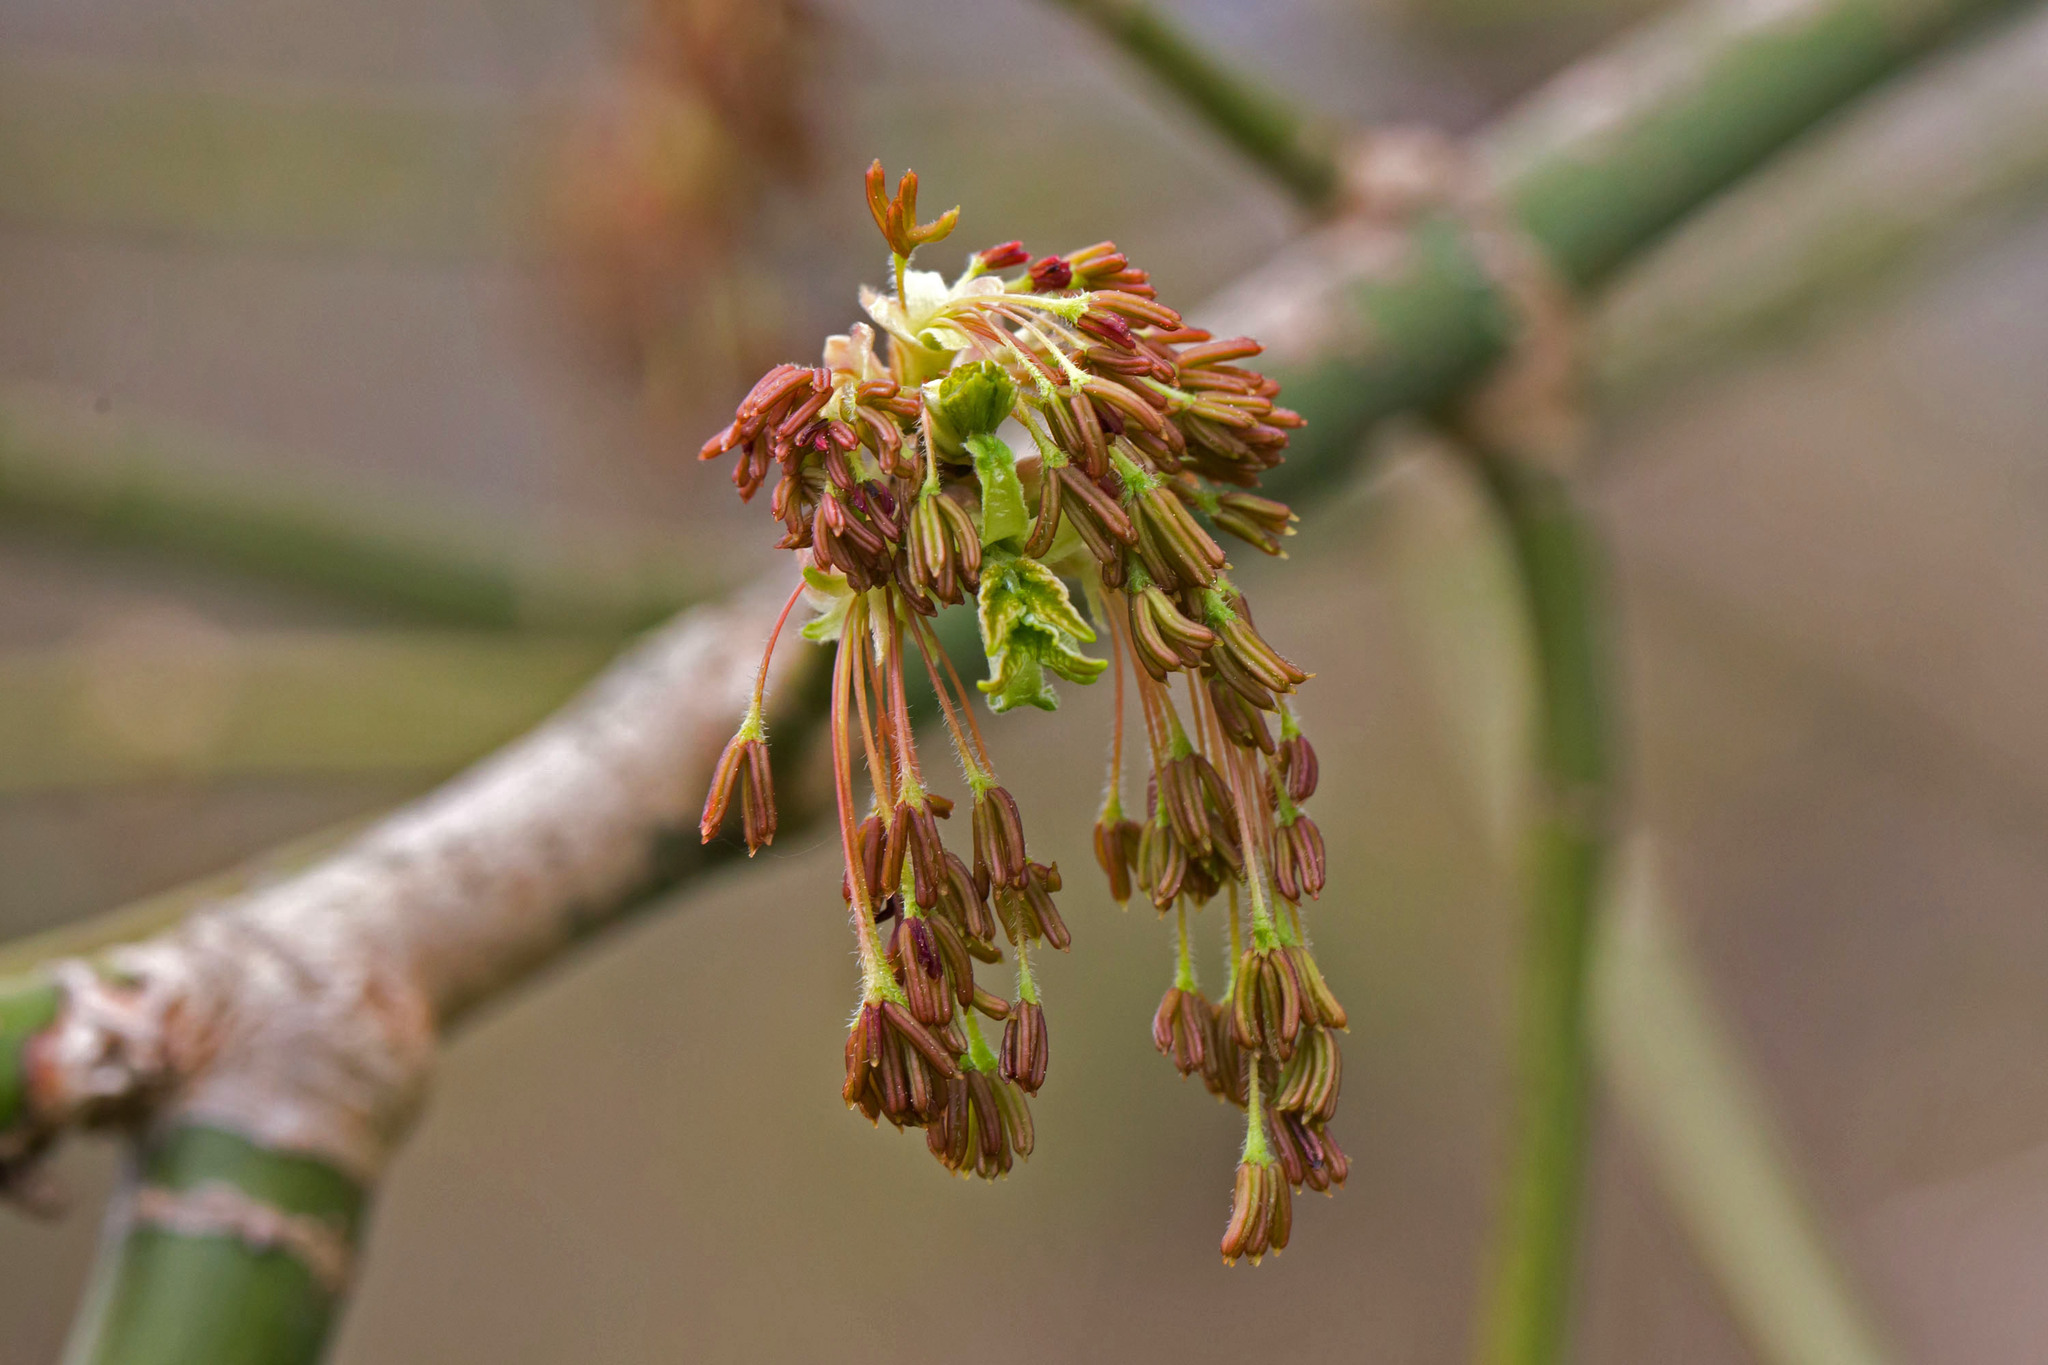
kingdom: Plantae
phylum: Tracheophyta
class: Magnoliopsida
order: Sapindales
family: Sapindaceae
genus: Acer
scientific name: Acer negundo
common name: Ashleaf maple
